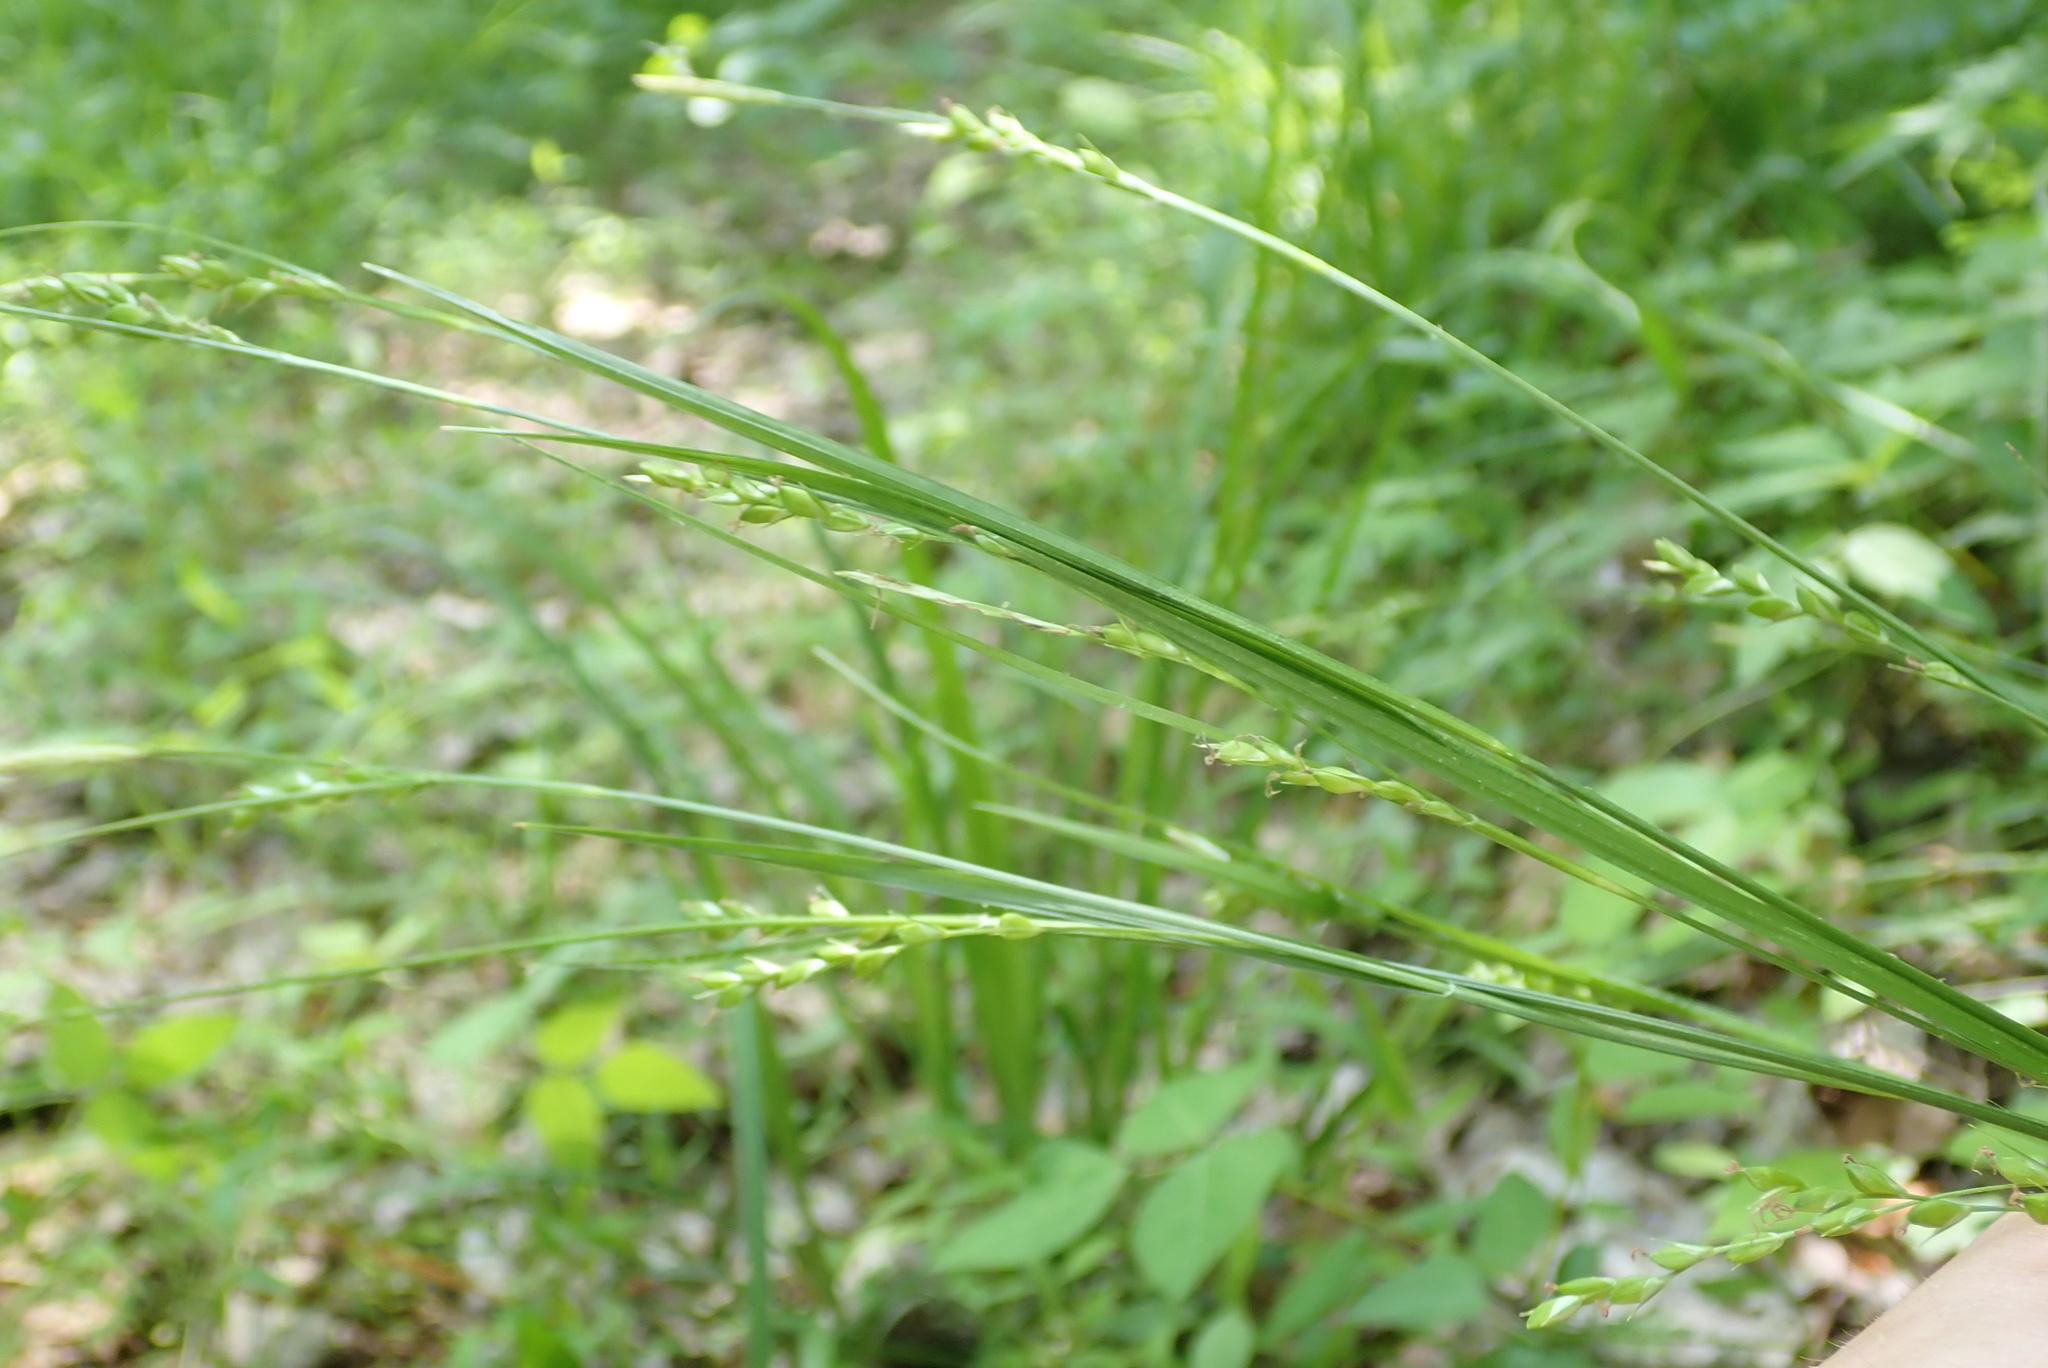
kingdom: Plantae
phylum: Tracheophyta
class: Liliopsida
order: Poales
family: Cyperaceae
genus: Carex
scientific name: Carex impressinervia
